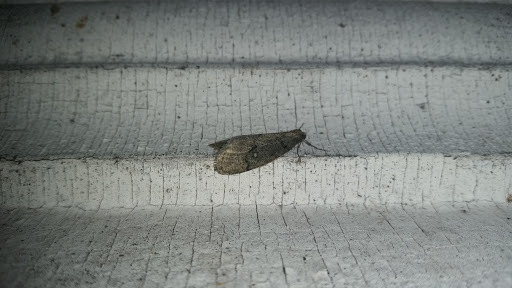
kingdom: Animalia
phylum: Arthropoda
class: Insecta
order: Lepidoptera
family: Geometridae
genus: Paleacrita
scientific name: Paleacrita merriccata
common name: White-spotted canker worm
